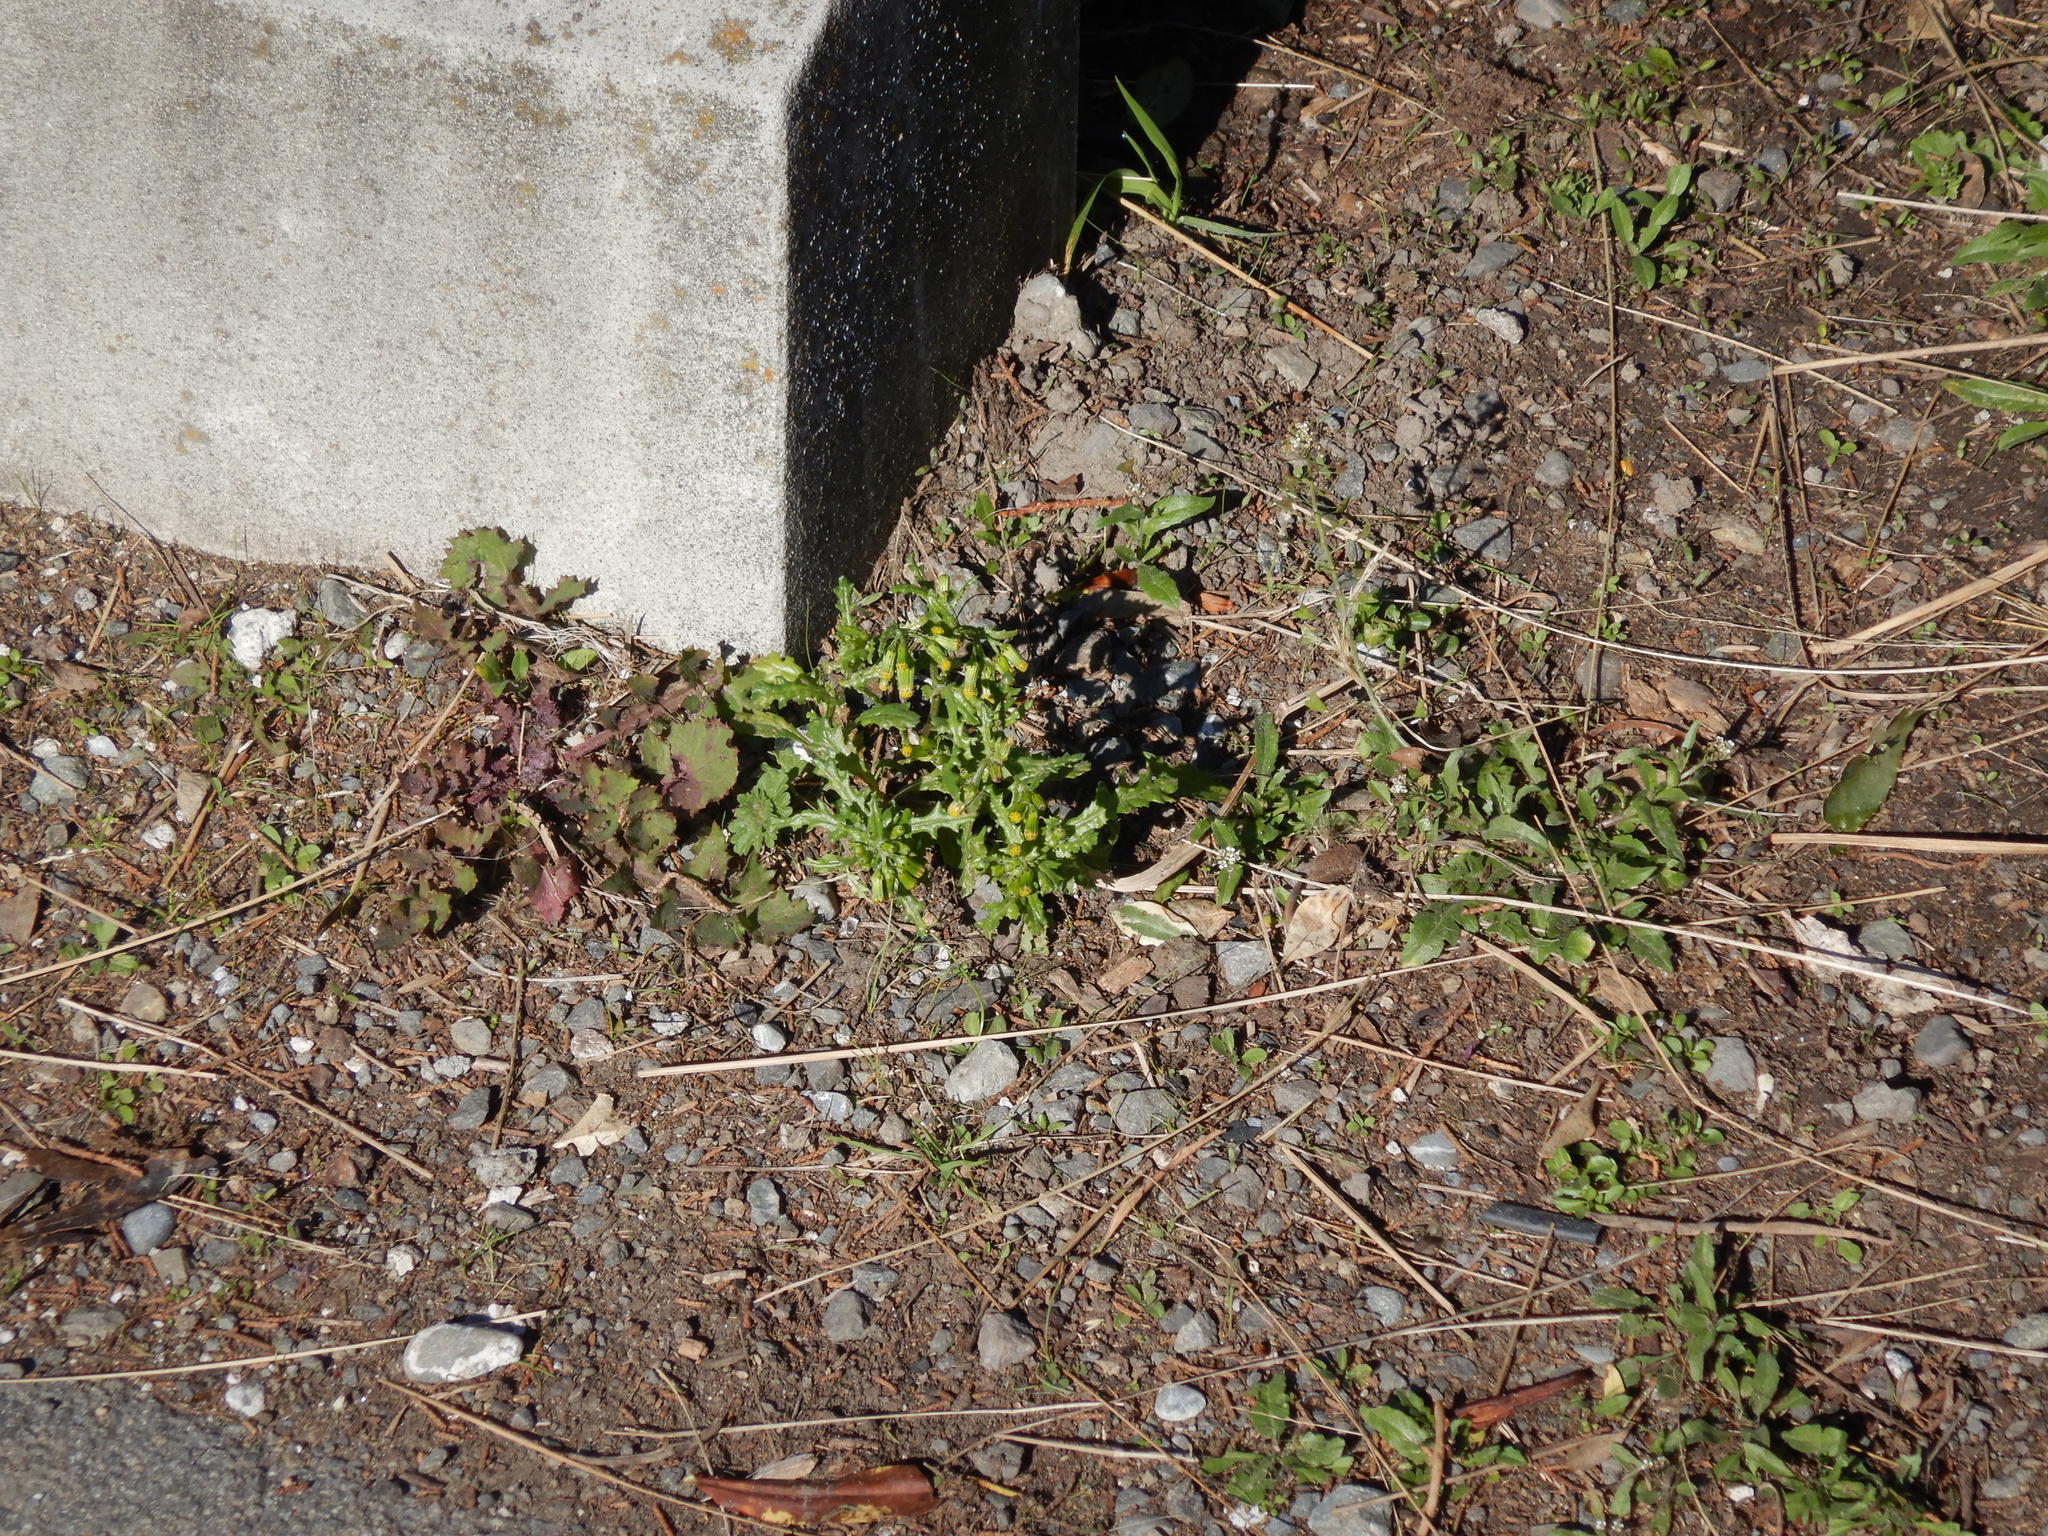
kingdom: Plantae
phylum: Tracheophyta
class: Magnoliopsida
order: Asterales
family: Asteraceae
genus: Sonchus
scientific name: Sonchus oleraceus
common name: Common sowthistle
